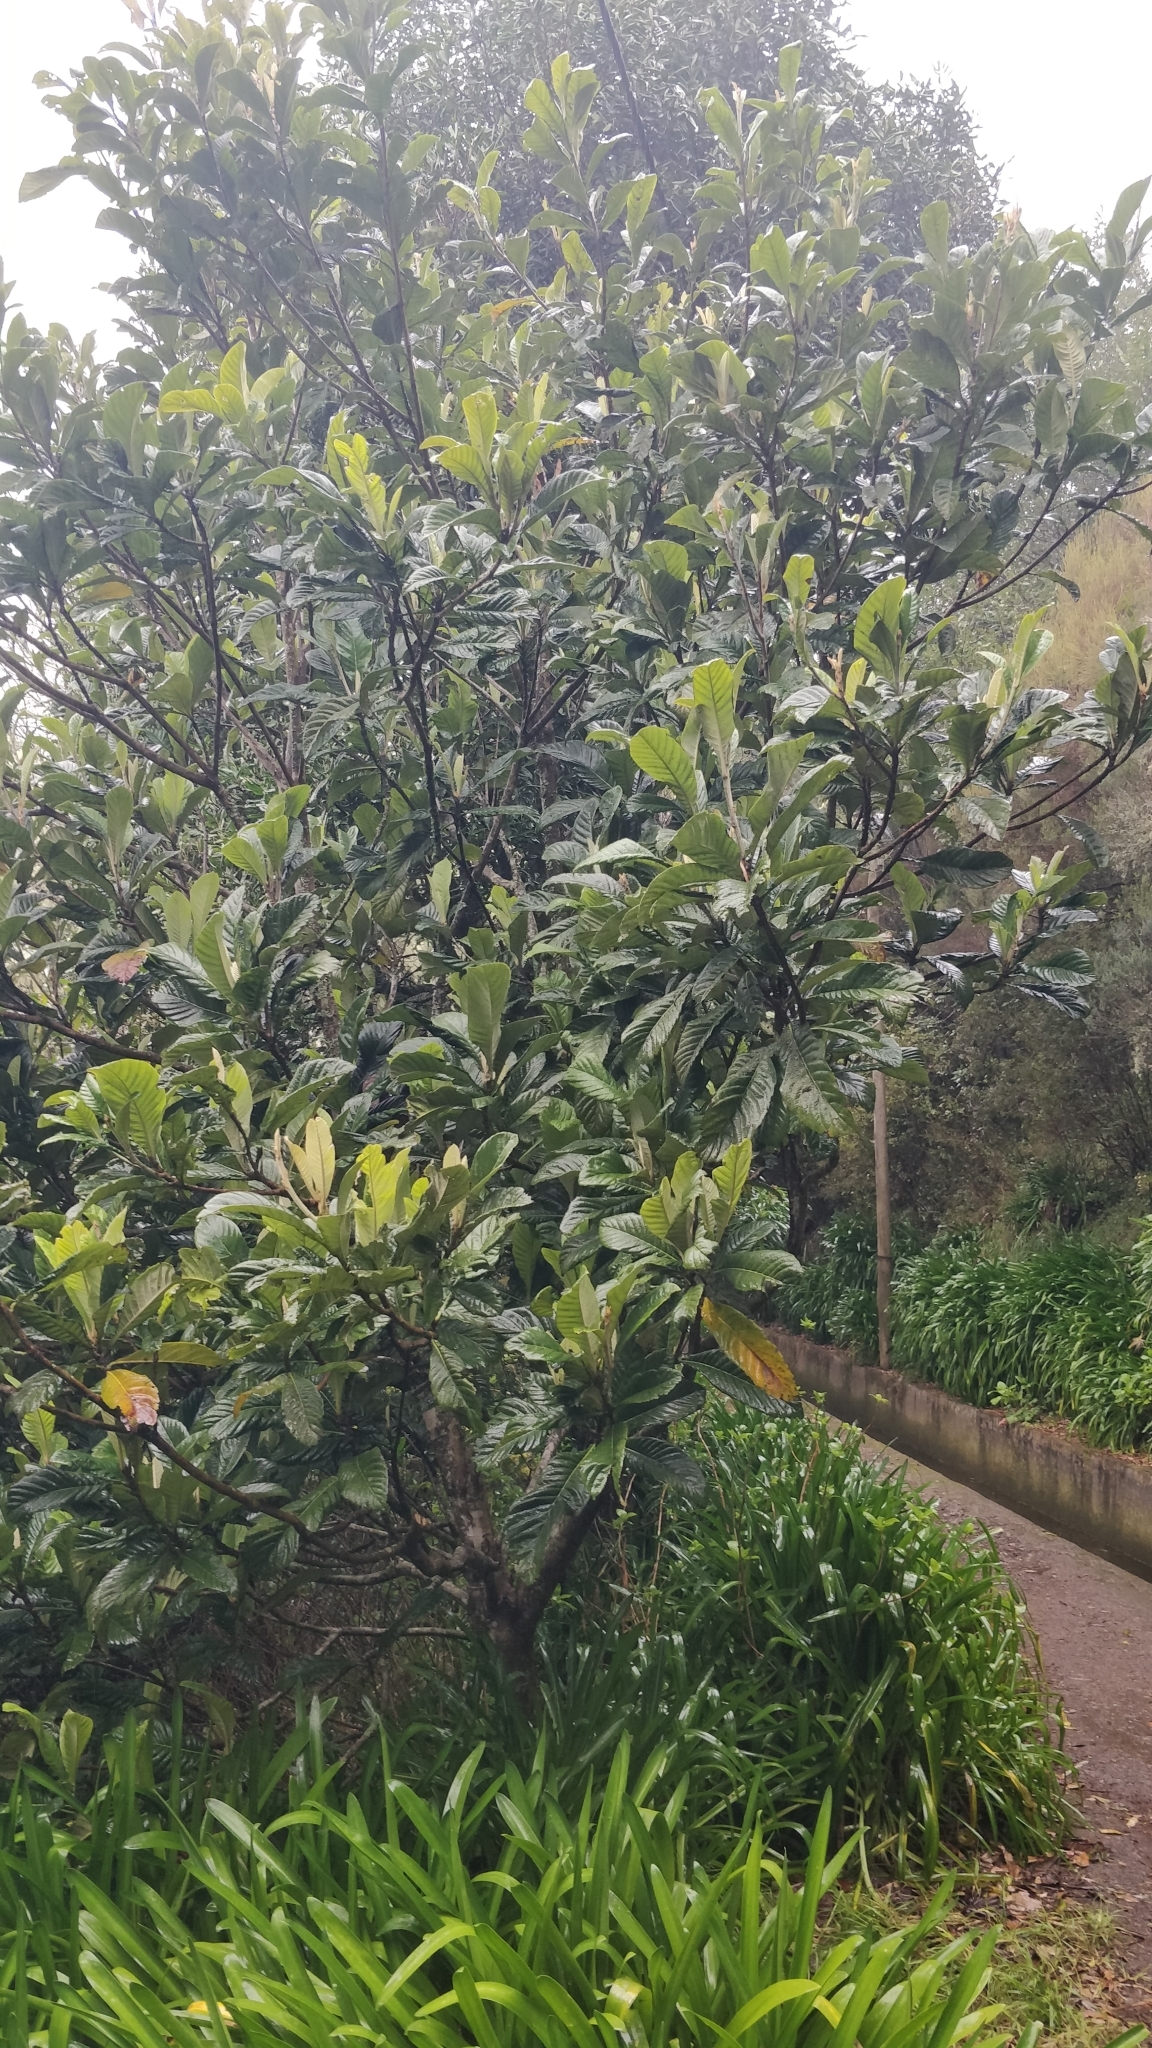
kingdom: Plantae
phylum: Tracheophyta
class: Magnoliopsida
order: Rosales
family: Rosaceae
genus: Rhaphiolepis
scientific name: Rhaphiolepis bibas
